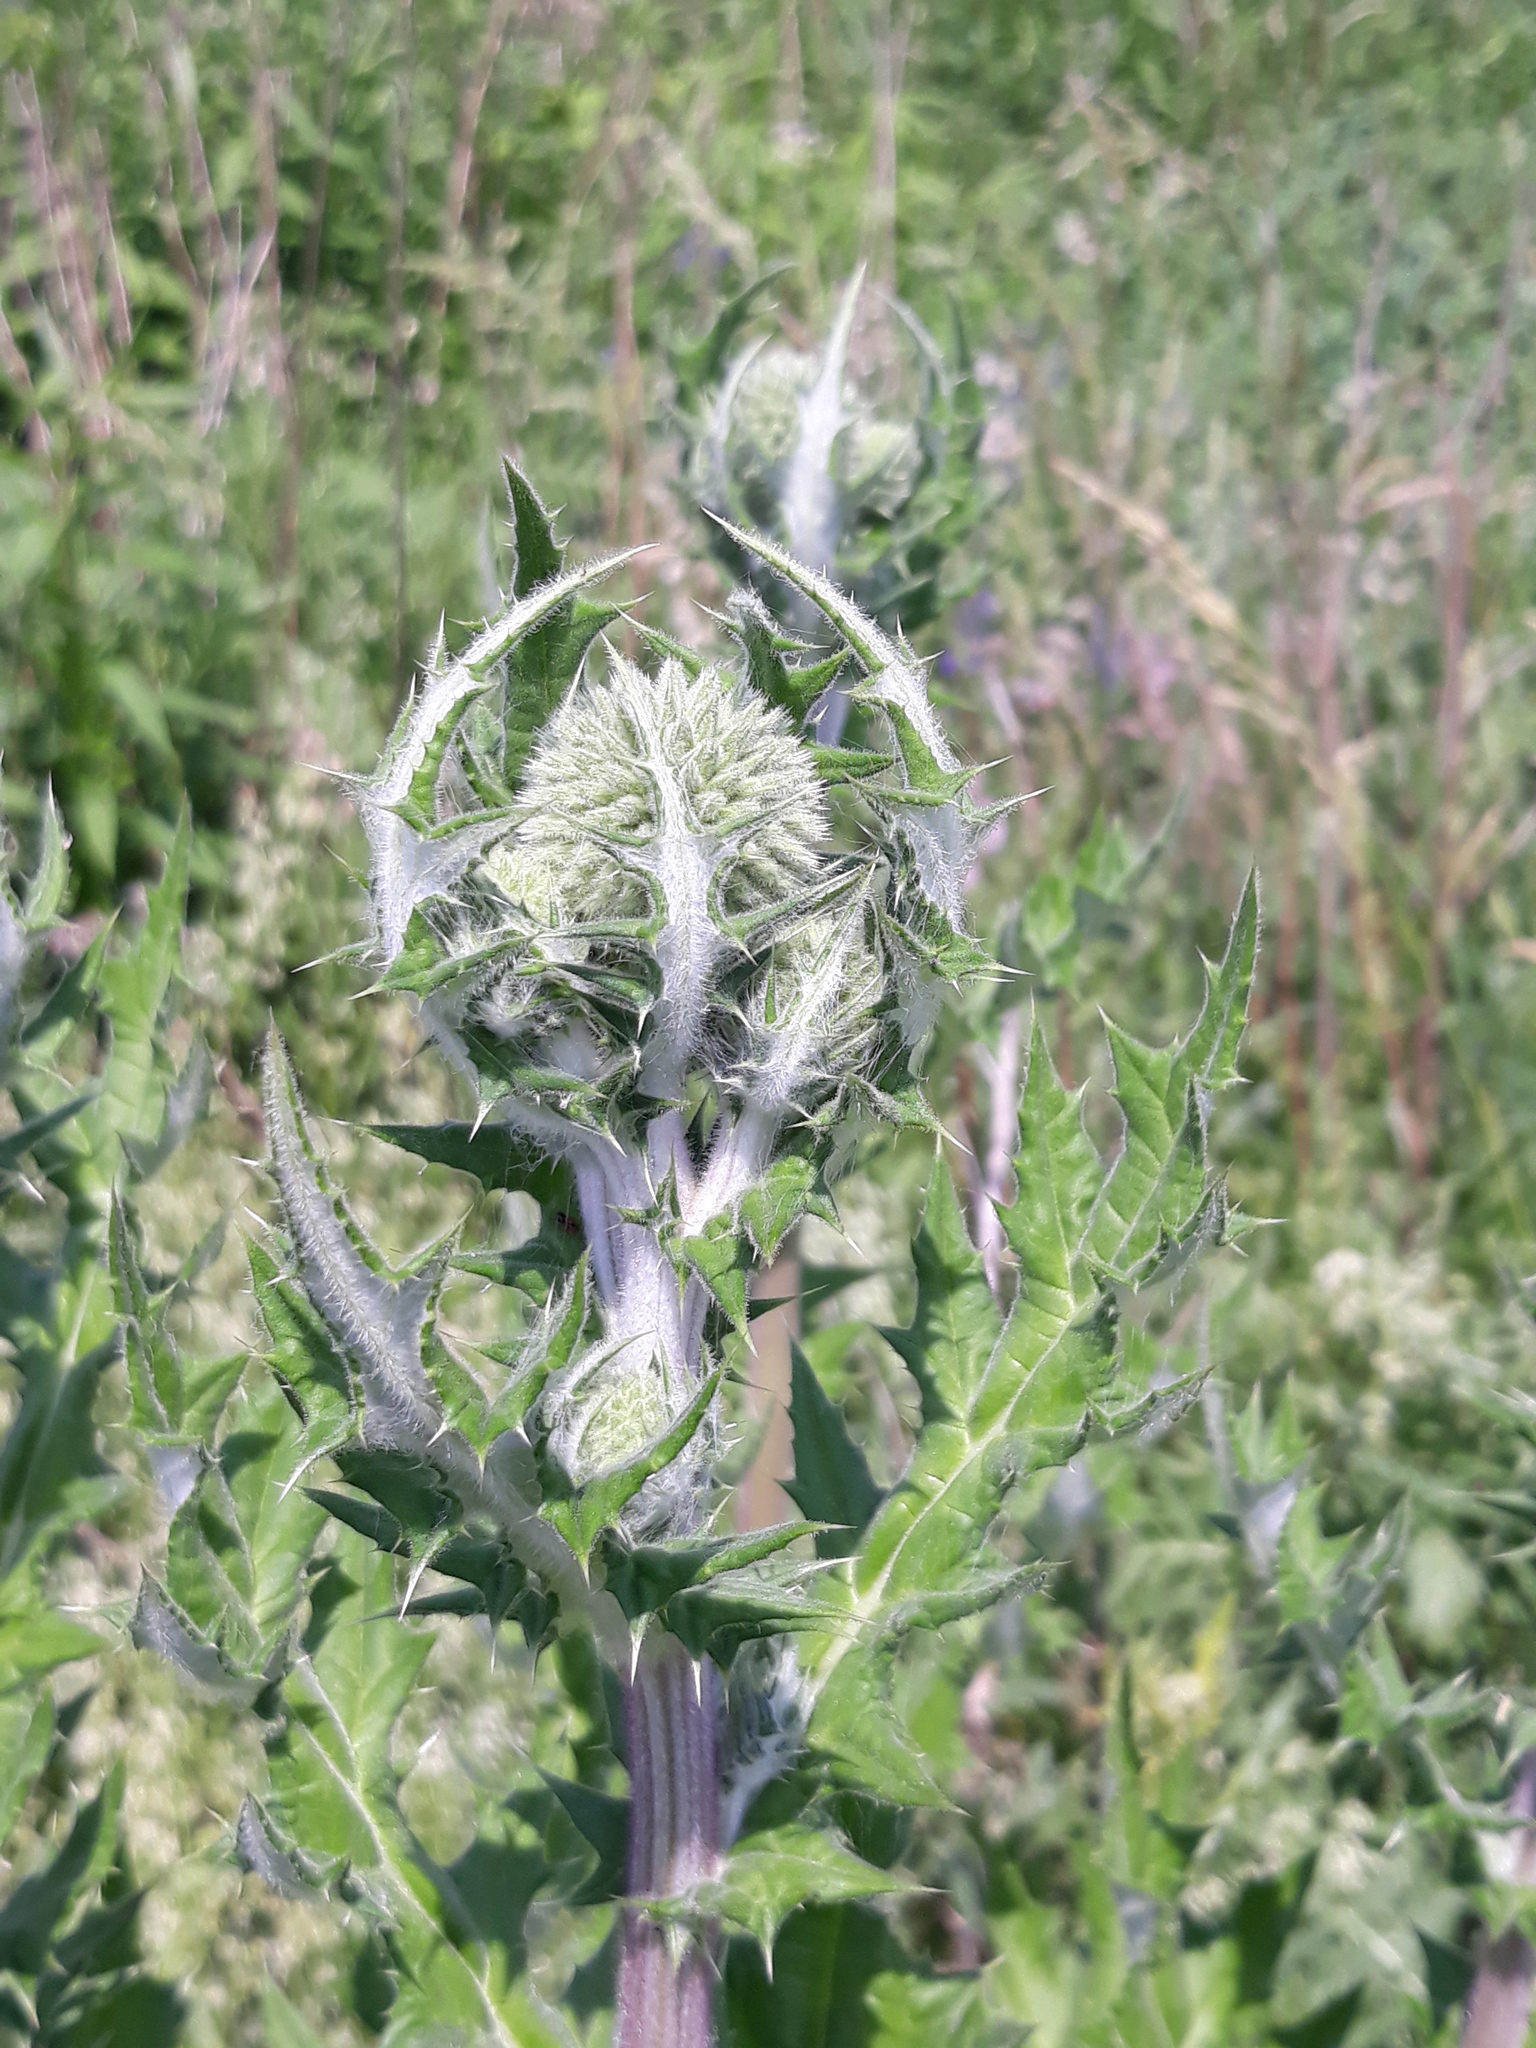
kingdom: Plantae
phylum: Tracheophyta
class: Magnoliopsida
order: Asterales
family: Asteraceae
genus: Echinops
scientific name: Echinops sphaerocephalus
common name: Glandular globe-thistle
